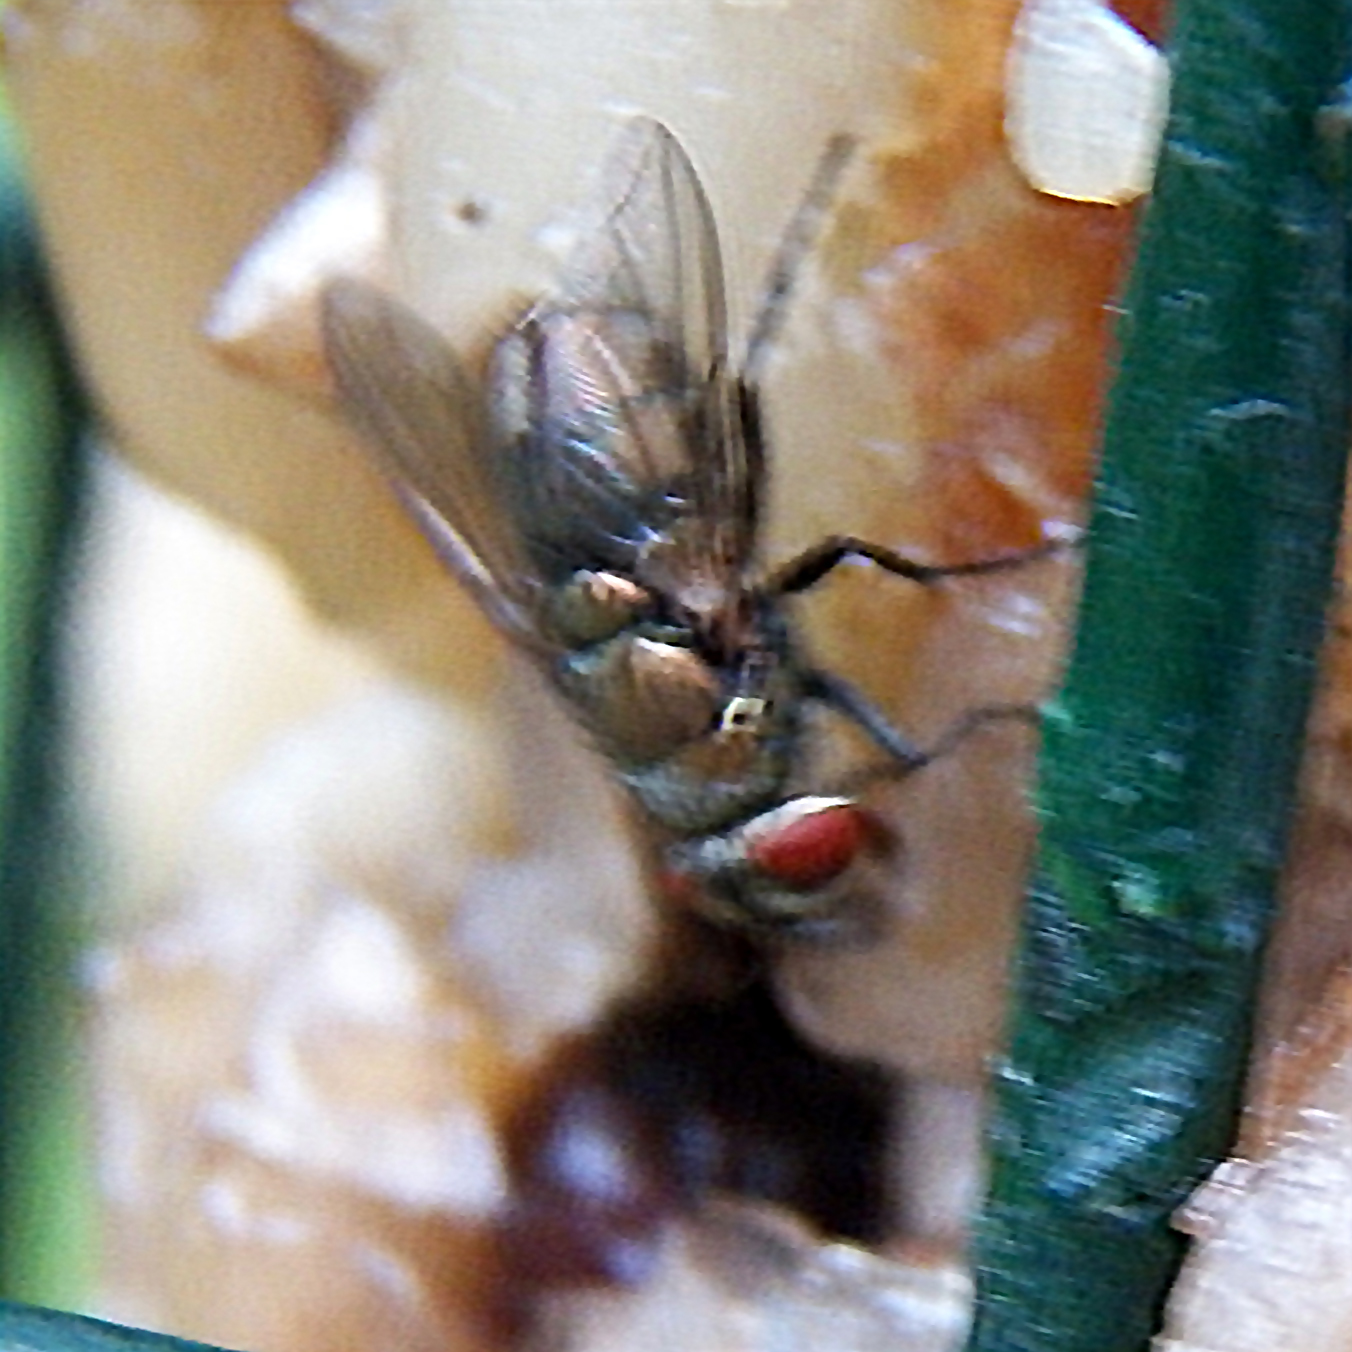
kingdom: Animalia
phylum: Arthropoda
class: Insecta
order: Diptera
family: Calliphoridae
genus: Lucilia
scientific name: Lucilia cuprina
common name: Sheep blow fly
